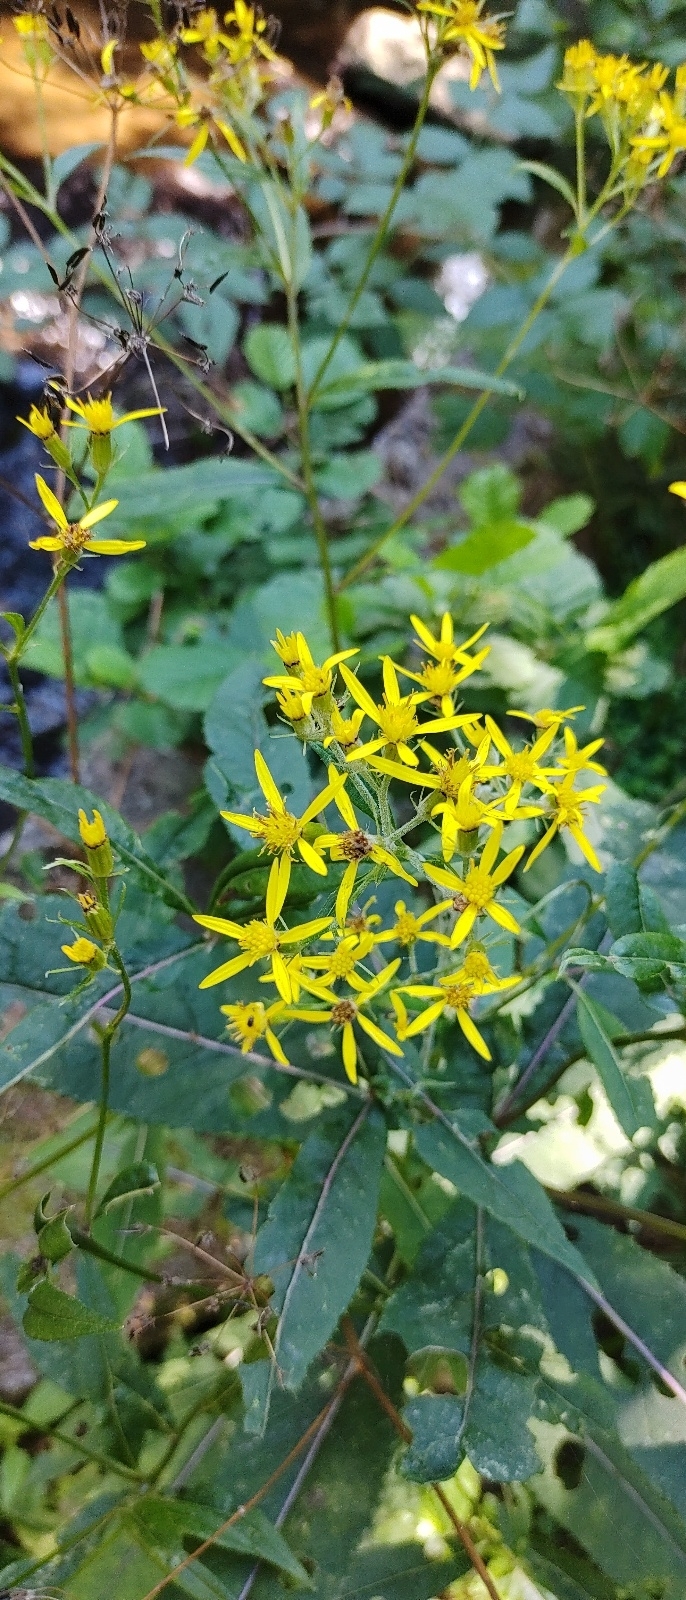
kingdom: Plantae
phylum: Tracheophyta
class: Magnoliopsida
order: Asterales
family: Asteraceae
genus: Senecio
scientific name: Senecio ovatus
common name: Wood ragwort
